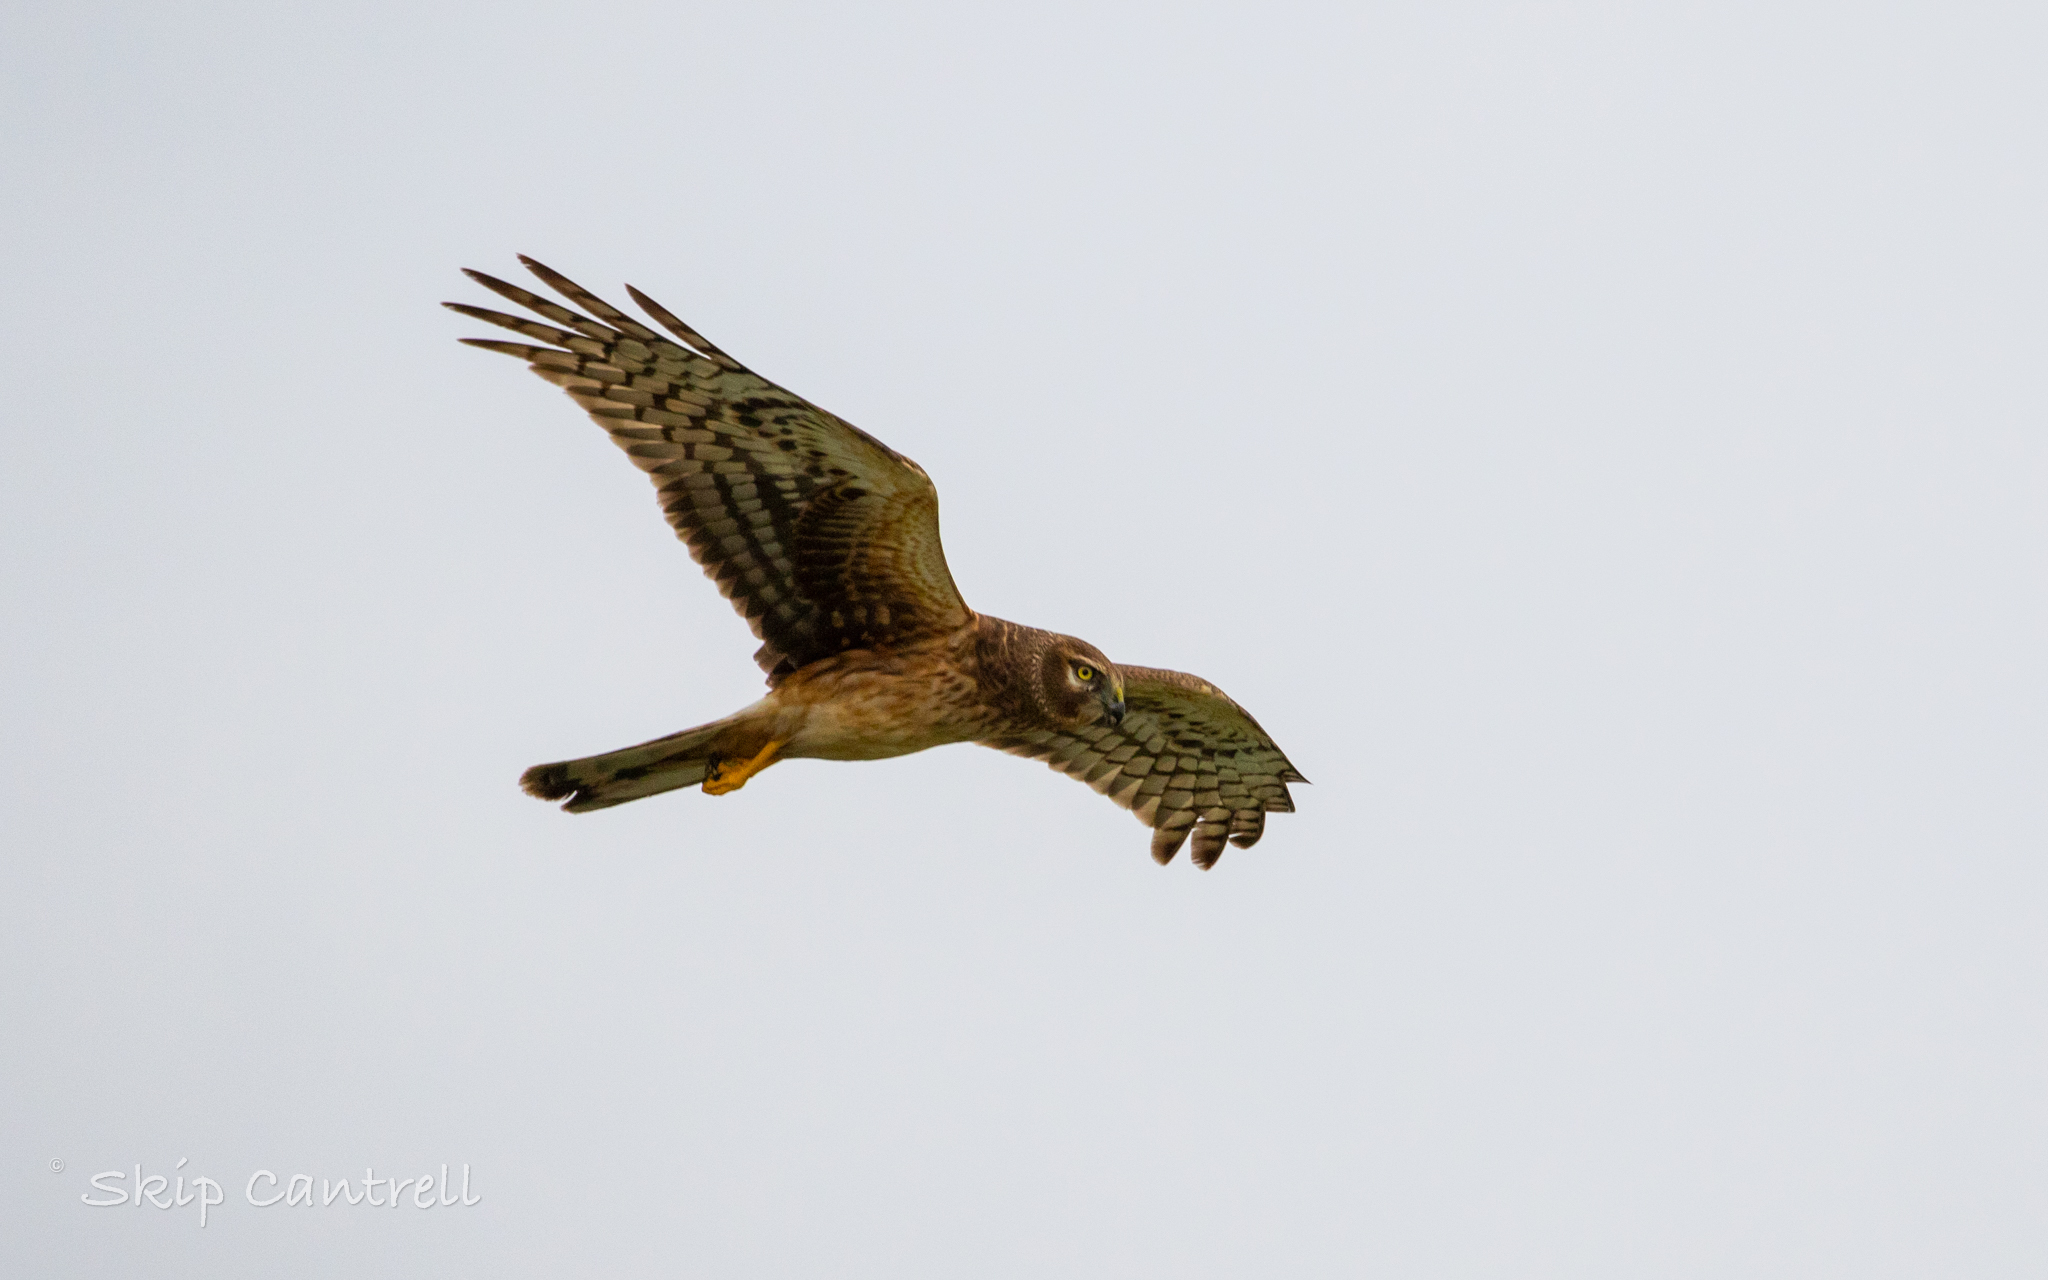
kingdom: Animalia
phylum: Chordata
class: Aves
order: Accipitriformes
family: Accipitridae
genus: Circus
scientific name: Circus cyaneus
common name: Hen harrier
